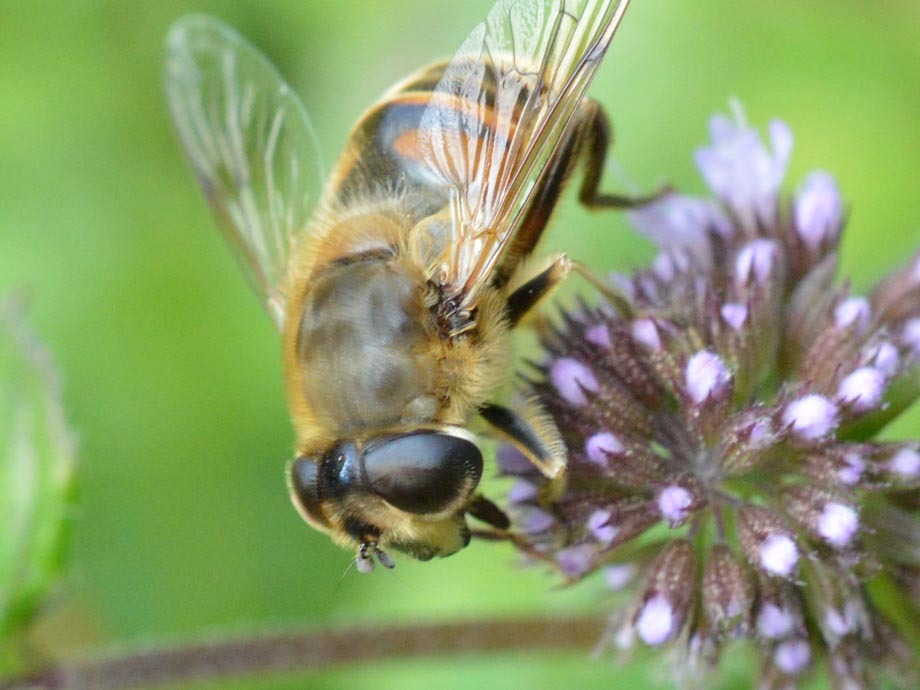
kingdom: Animalia
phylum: Arthropoda
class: Insecta
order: Diptera
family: Syrphidae
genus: Eristalis
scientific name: Eristalis tenax
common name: Drone fly
